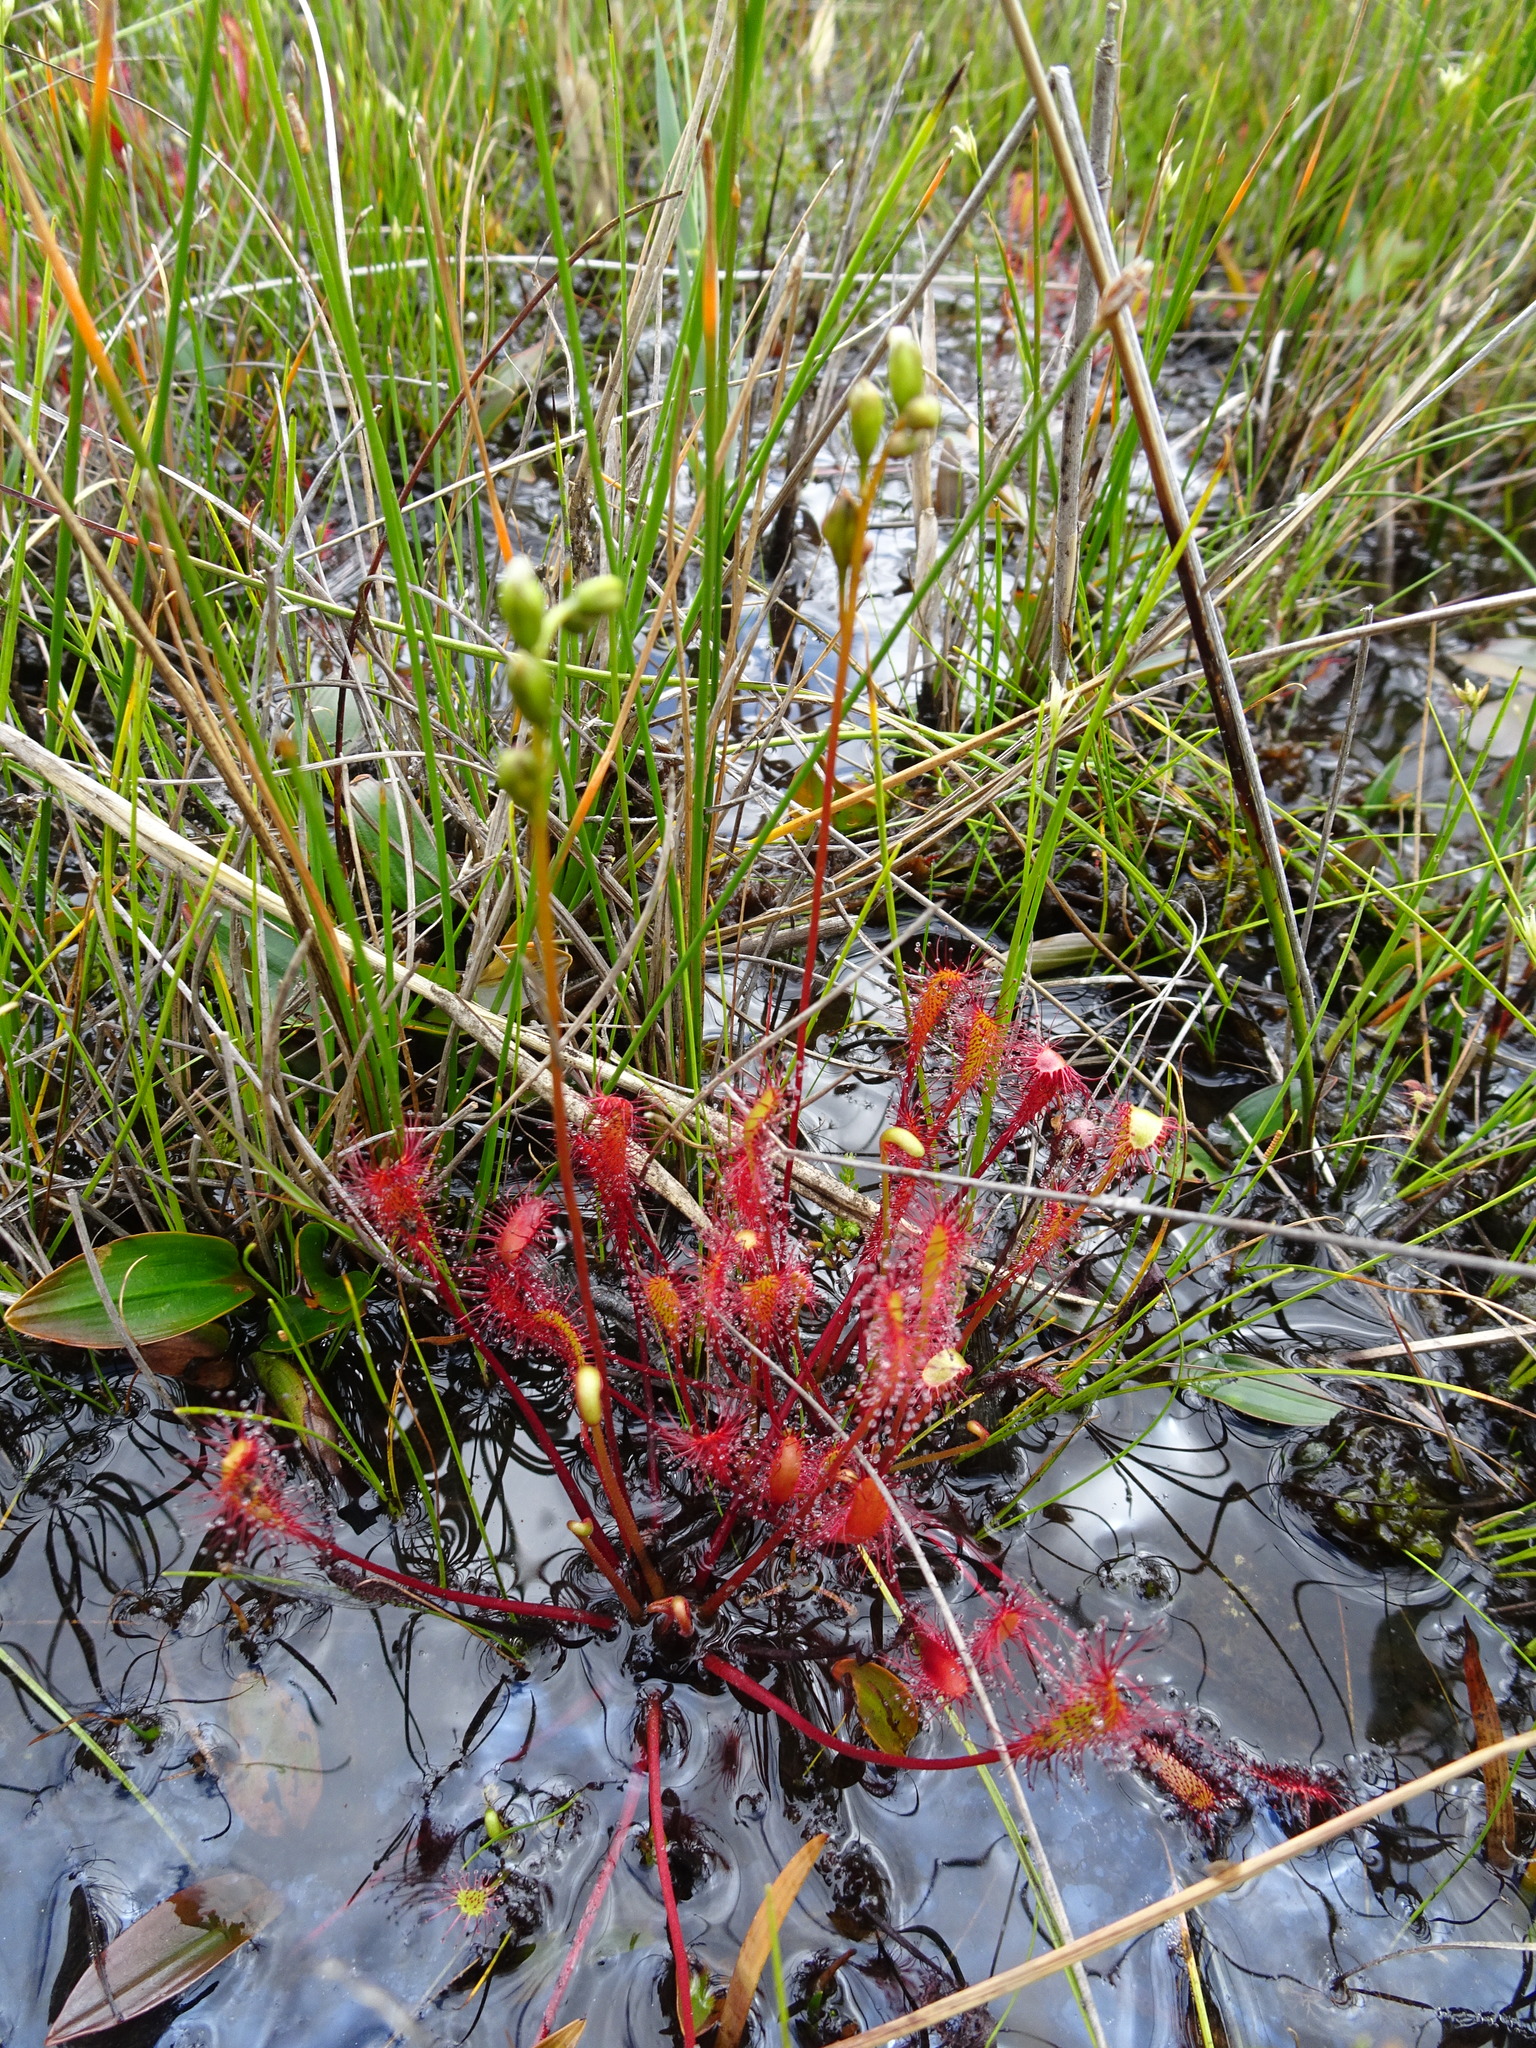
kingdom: Plantae
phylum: Tracheophyta
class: Magnoliopsida
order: Caryophyllales
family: Droseraceae
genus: Drosera
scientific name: Drosera anglica
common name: Great sundew
